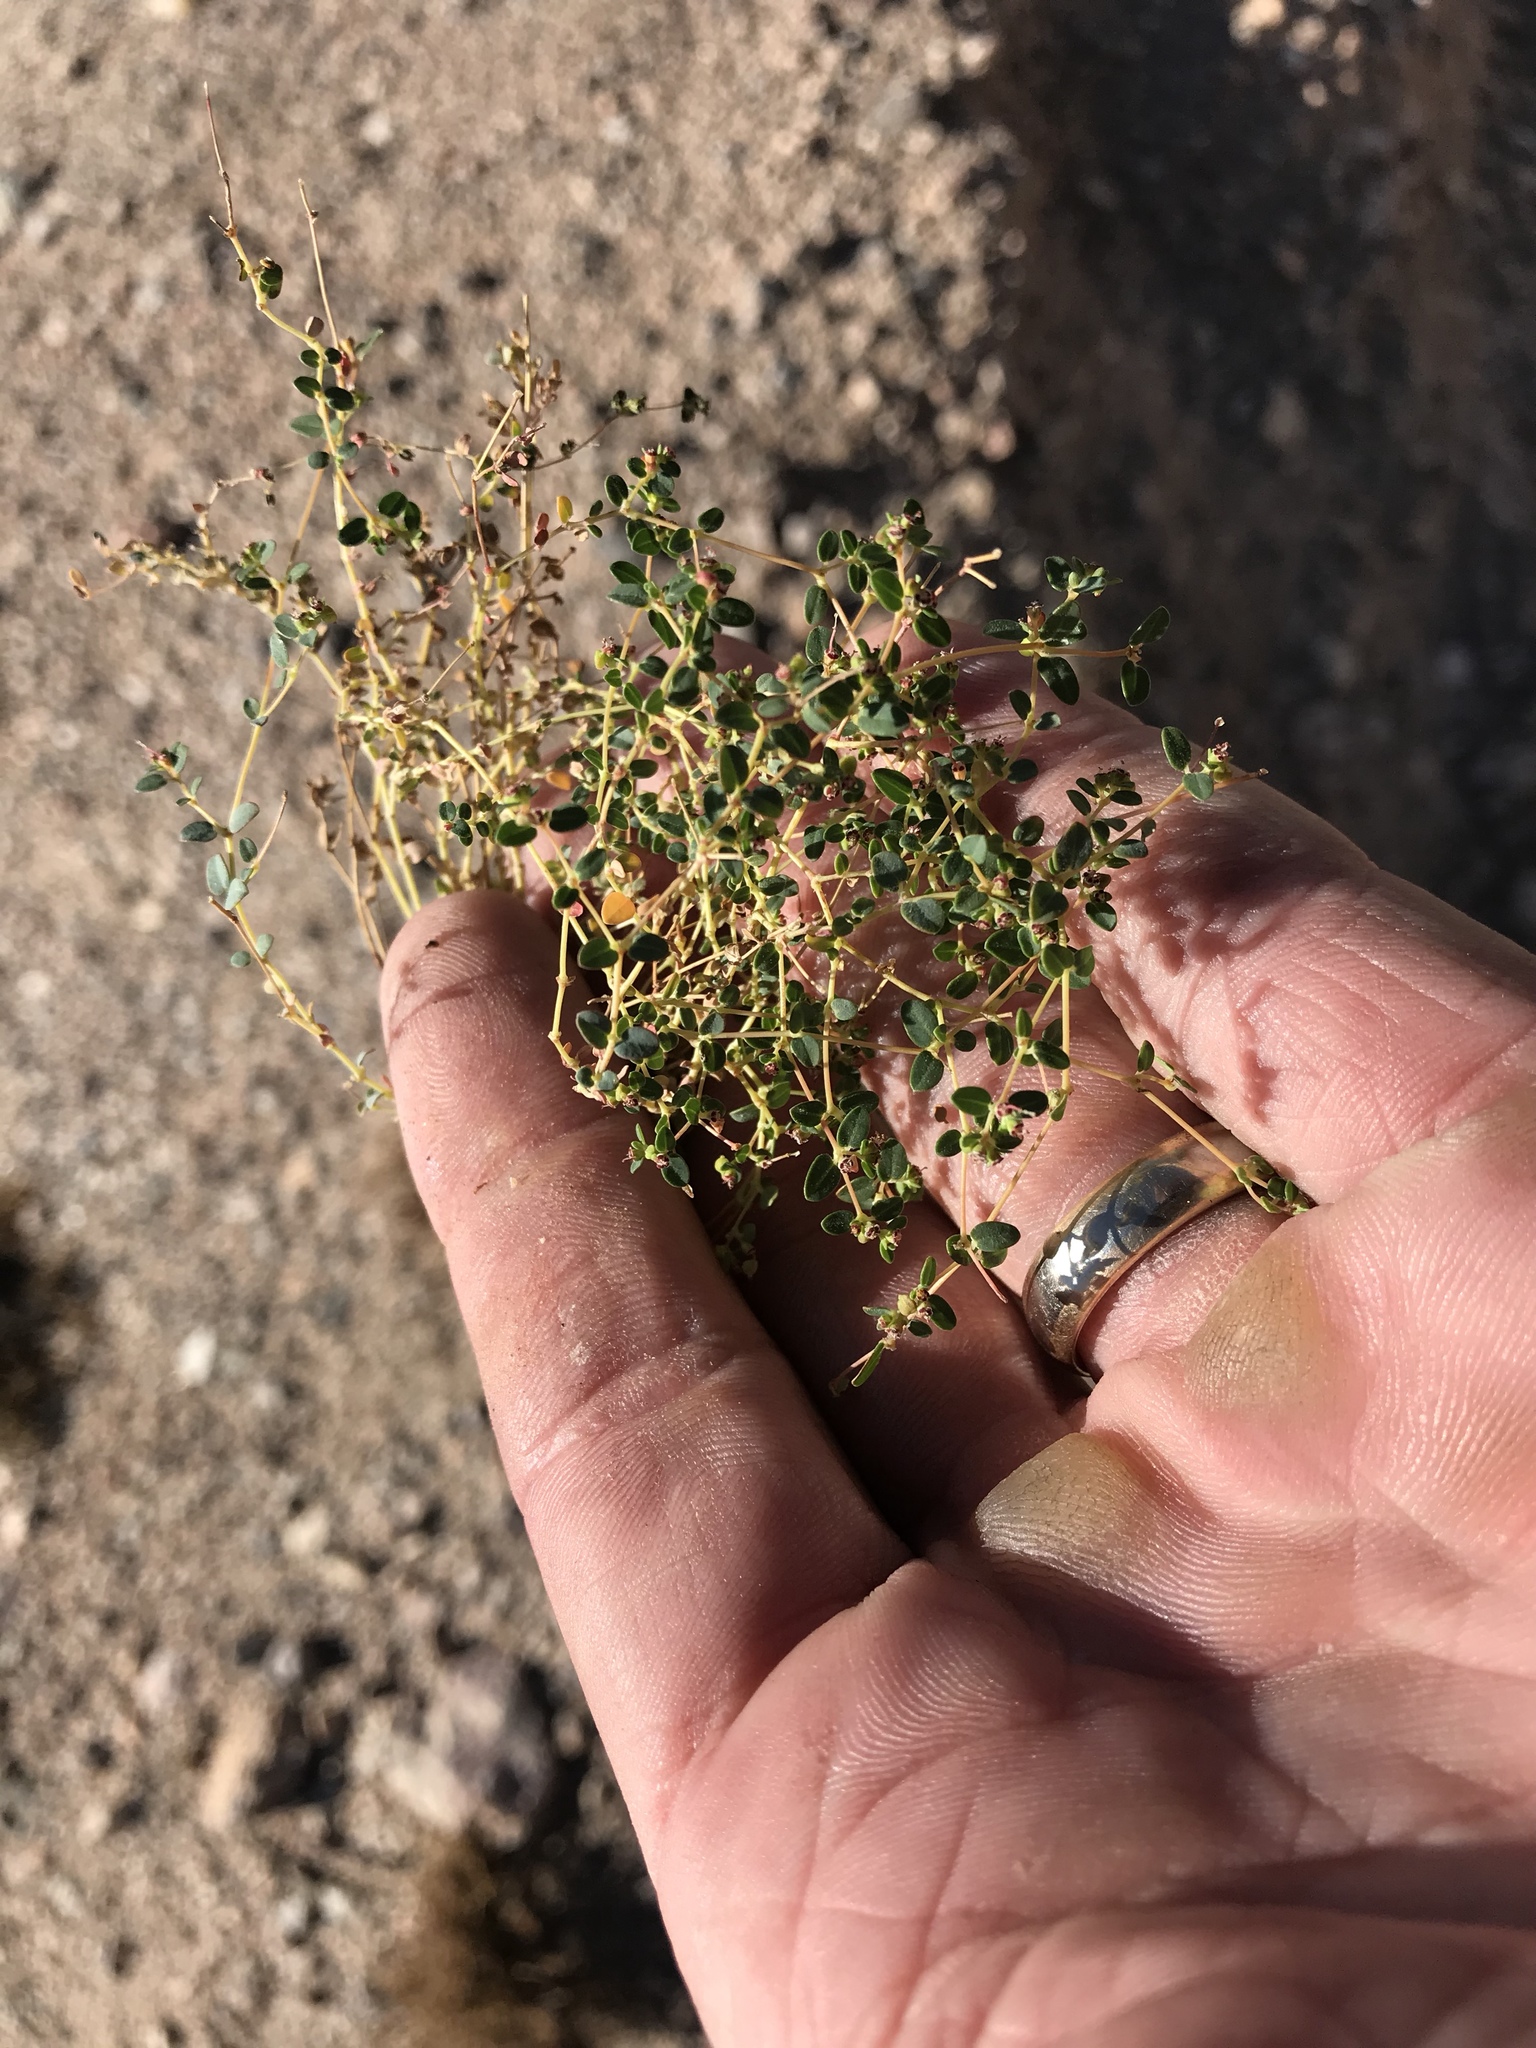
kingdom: Plantae
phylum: Tracheophyta
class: Magnoliopsida
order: Malpighiales
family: Euphorbiaceae
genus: Euphorbia
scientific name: Euphorbia polycarpa
